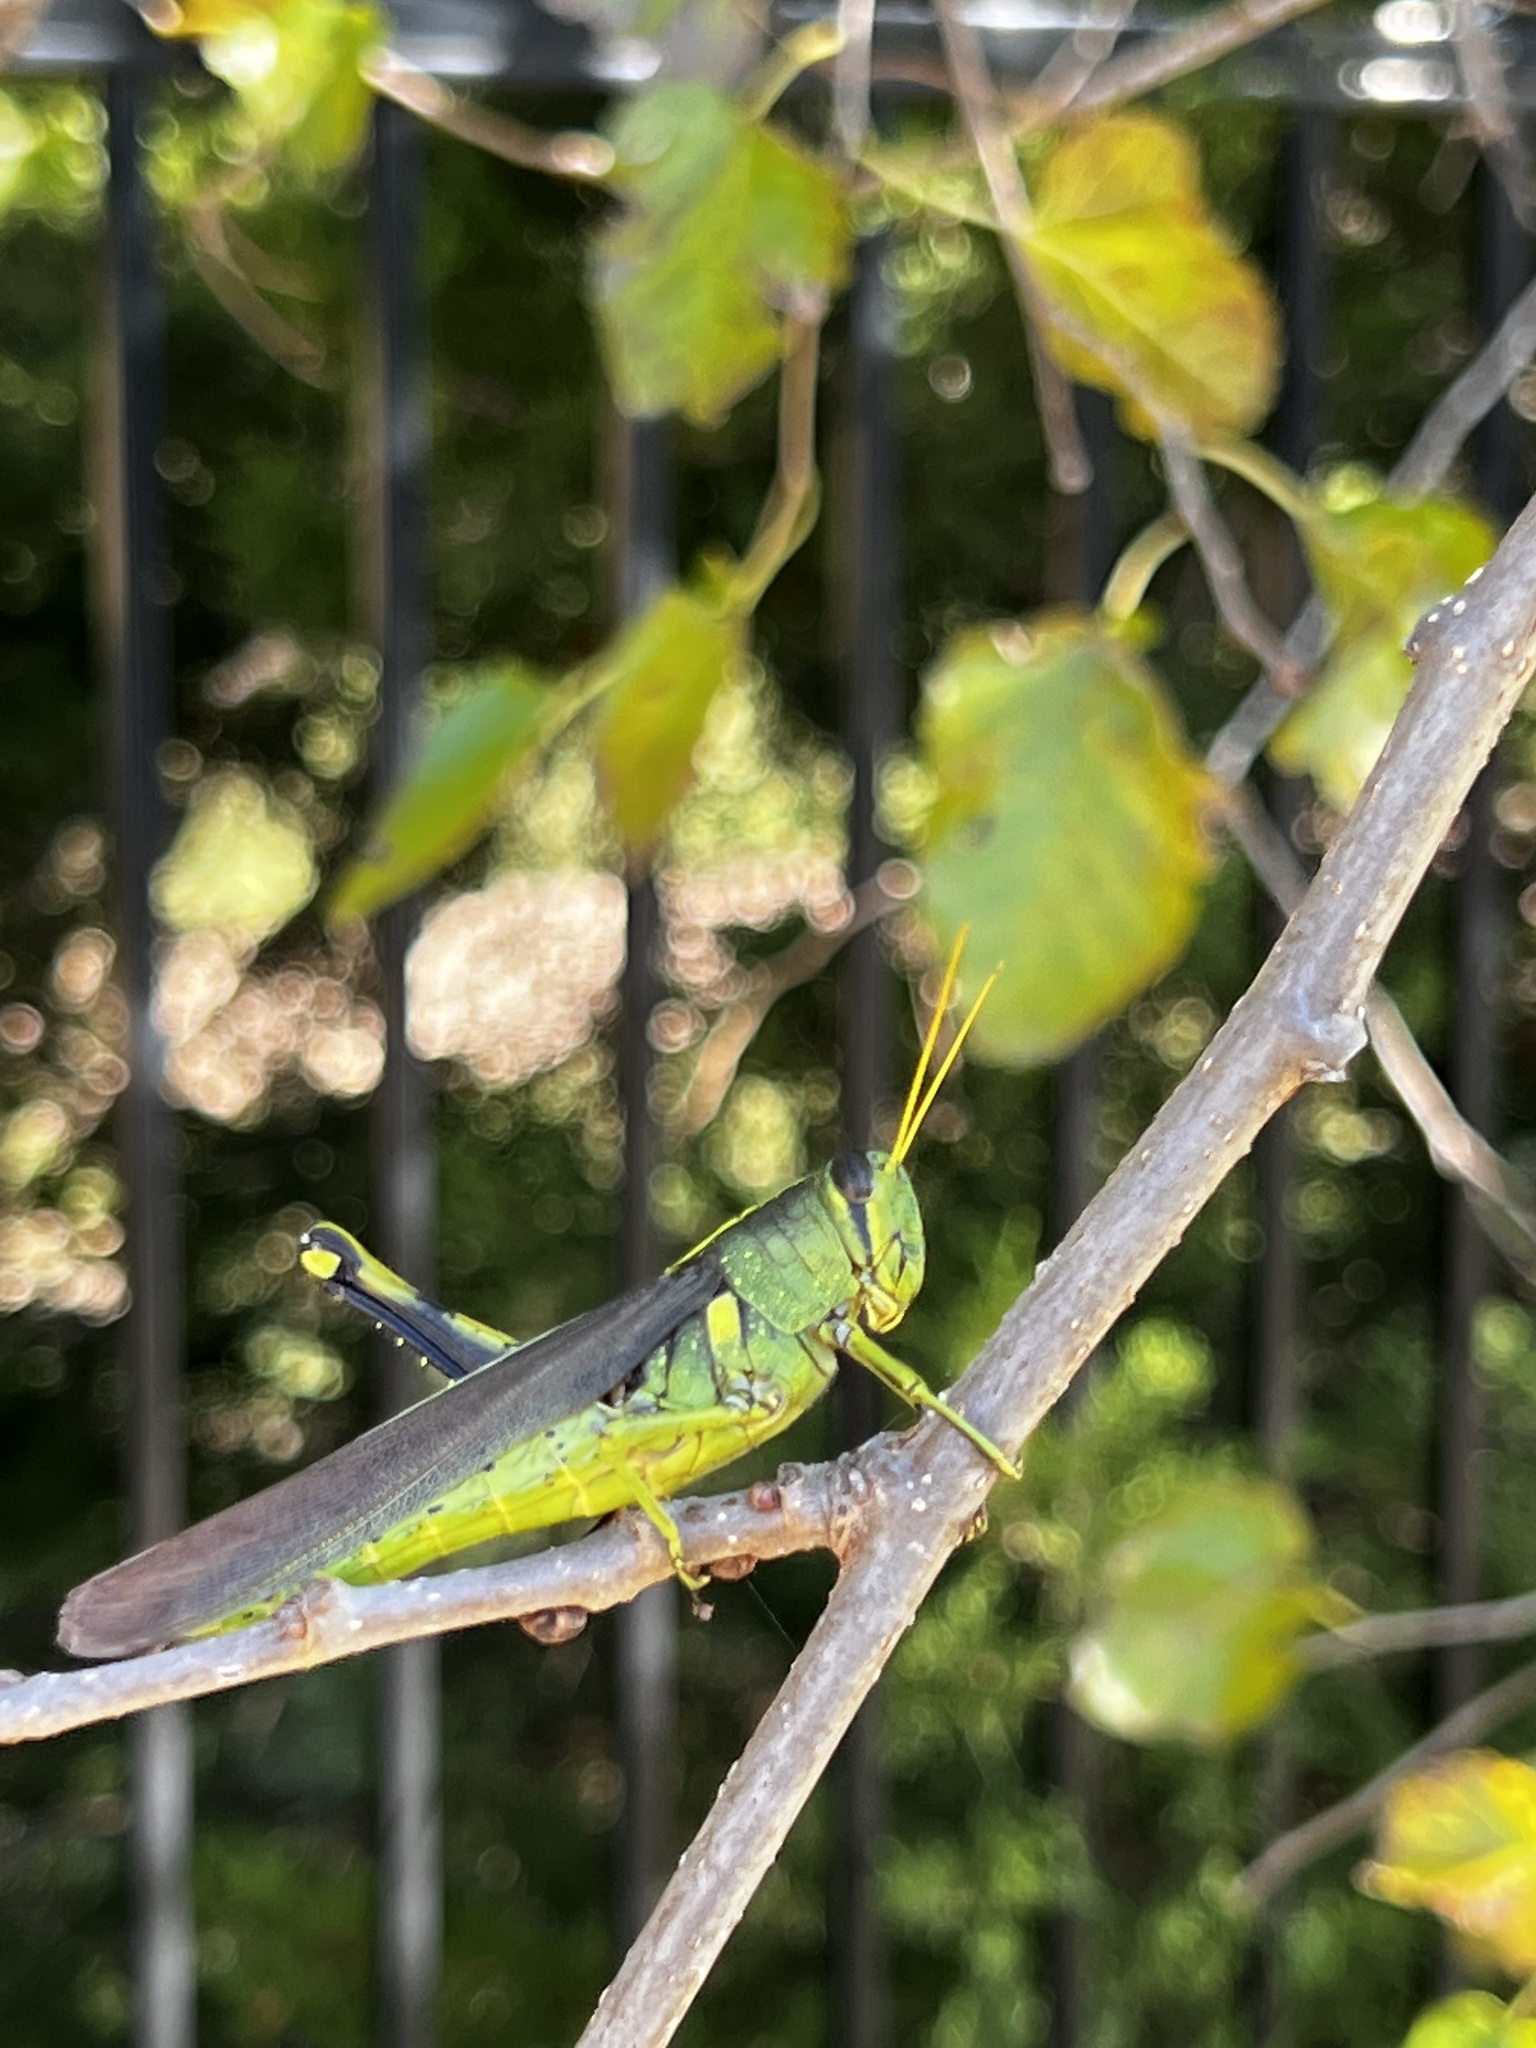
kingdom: Animalia
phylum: Arthropoda
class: Insecta
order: Orthoptera
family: Acrididae
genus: Schistocerca
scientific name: Schistocerca obscura
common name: Obscure bird grasshopper
